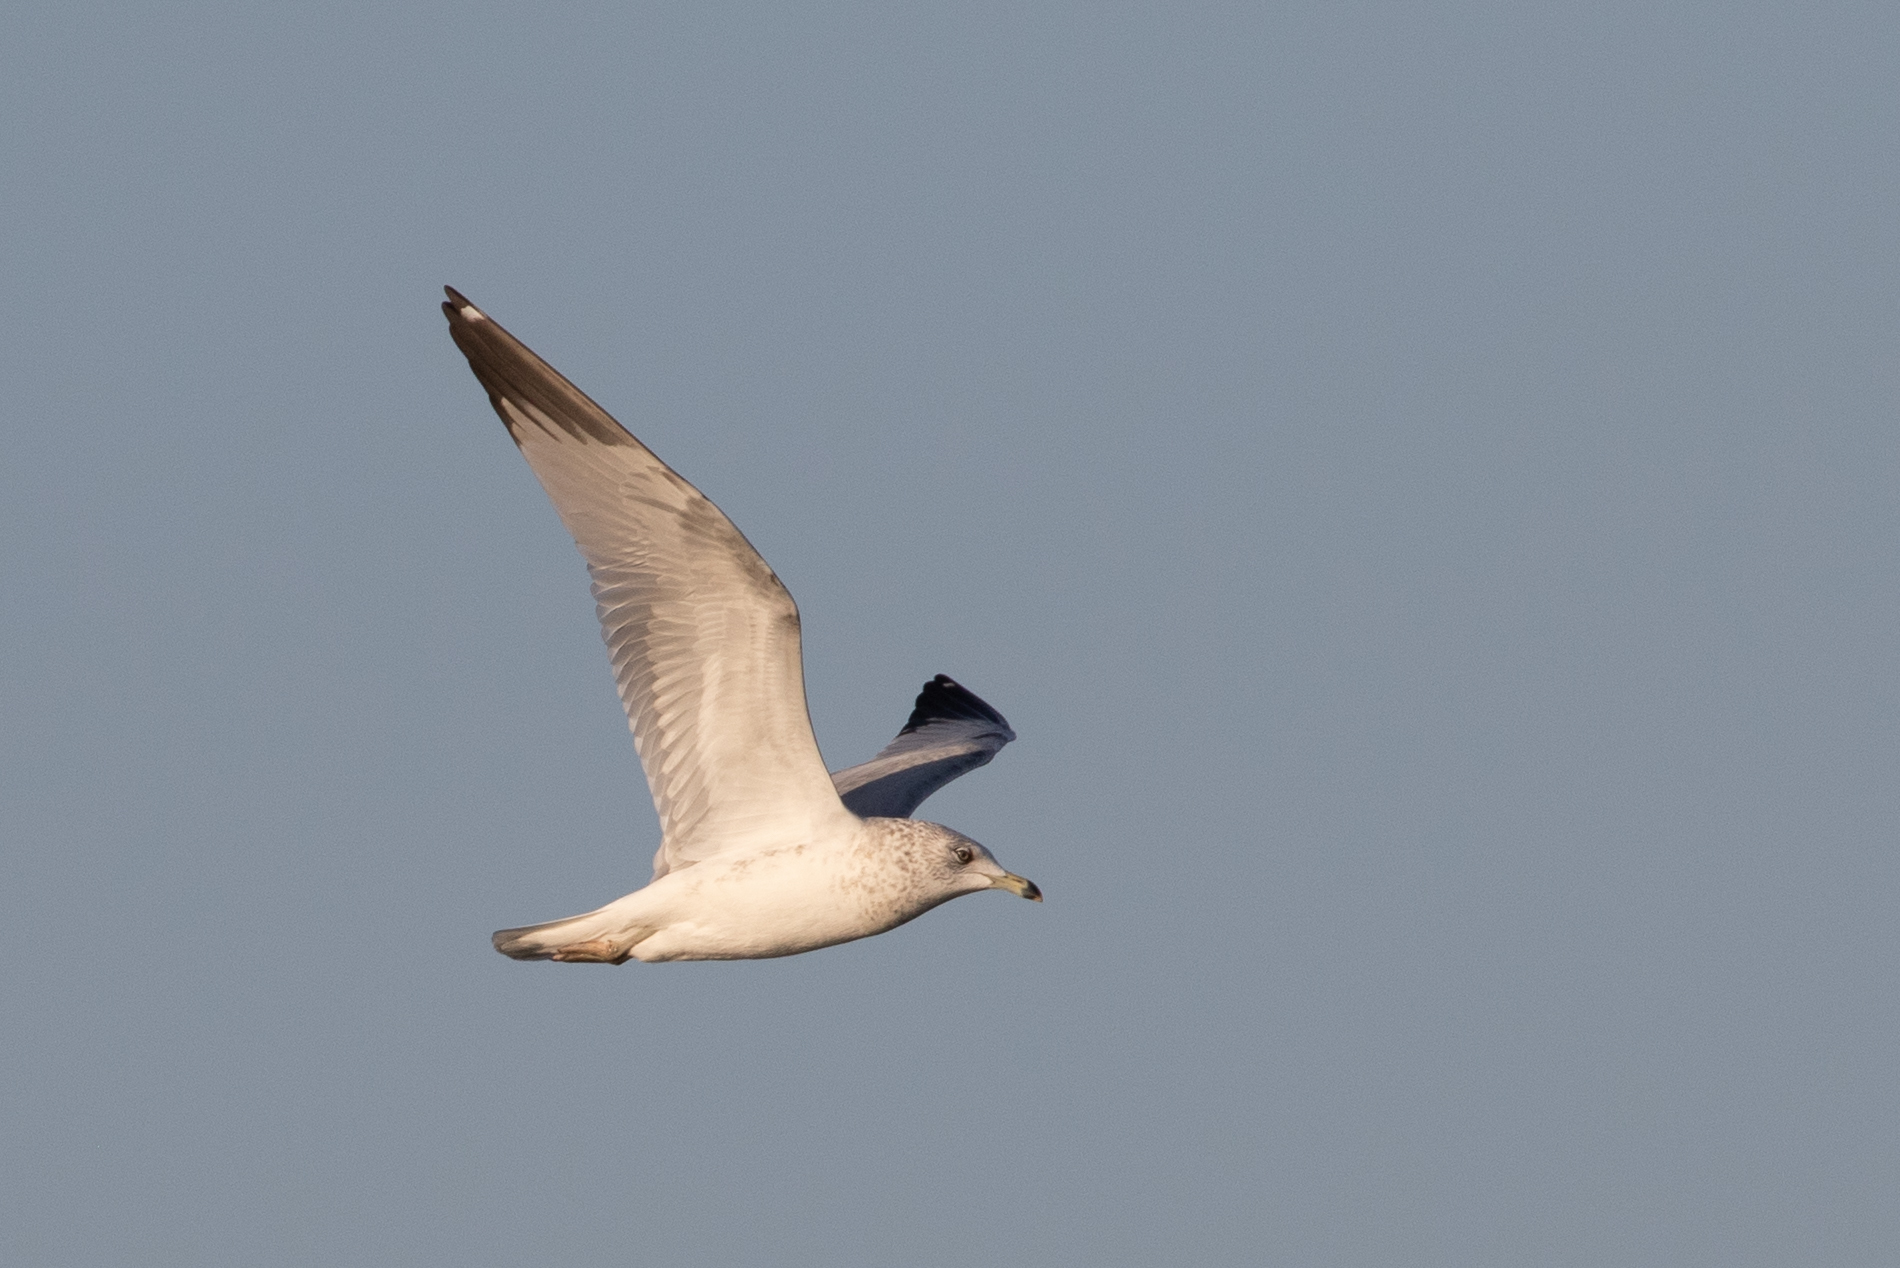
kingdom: Animalia
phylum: Chordata
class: Aves
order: Charadriiformes
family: Laridae
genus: Larus
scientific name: Larus delawarensis
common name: Ring-billed gull
